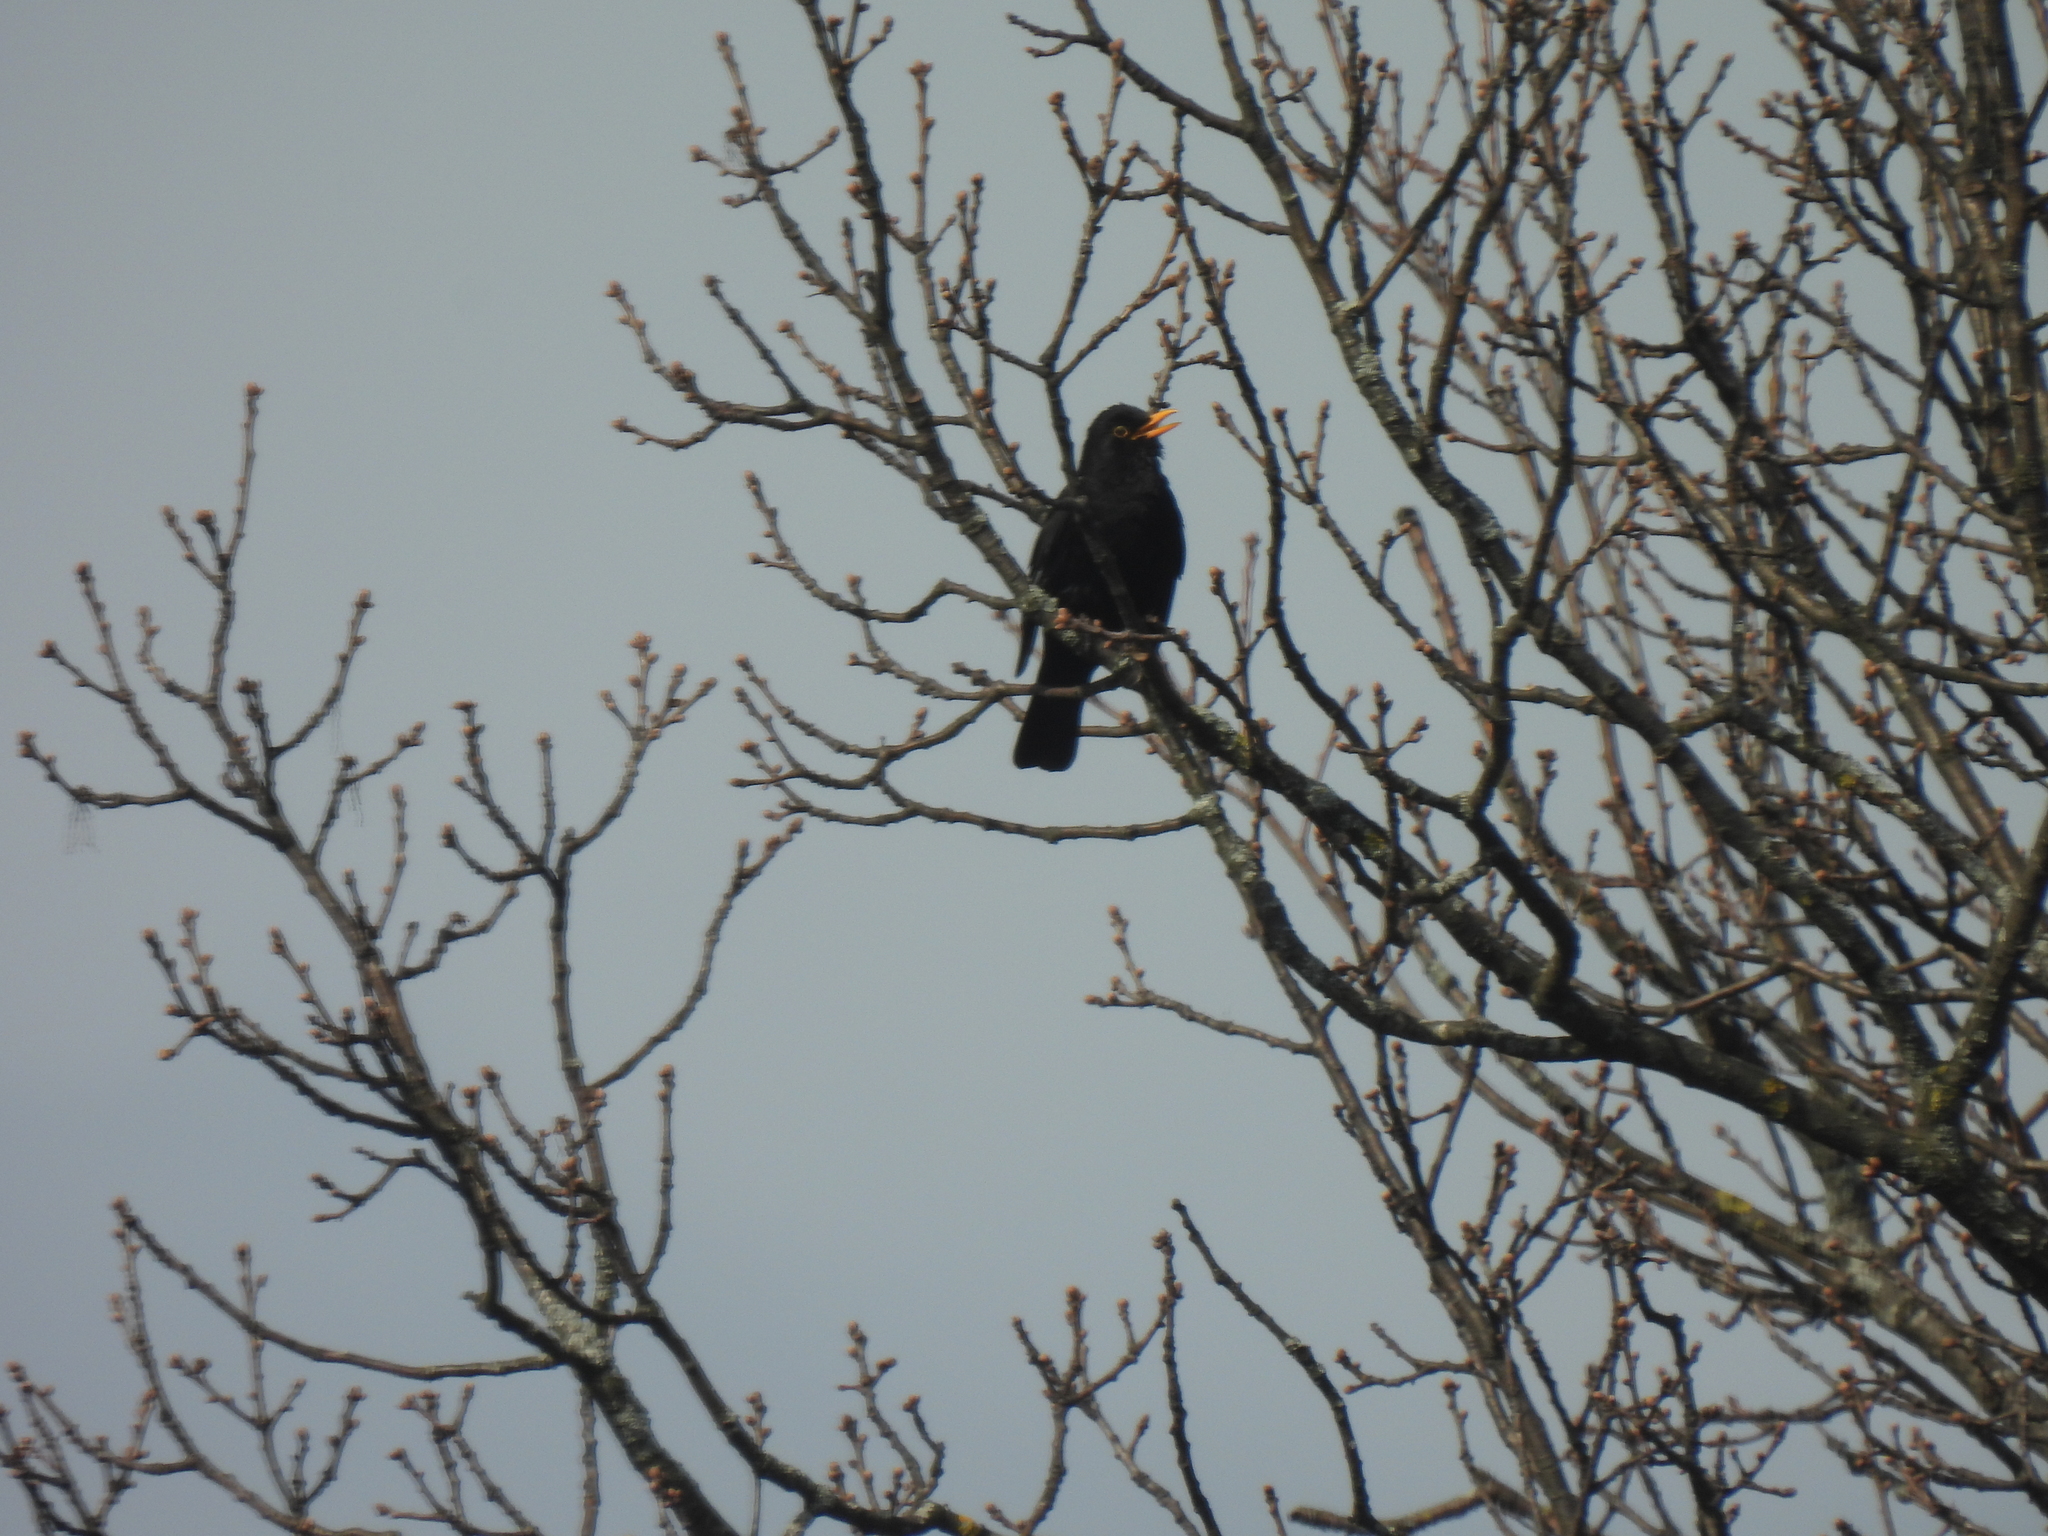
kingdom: Animalia
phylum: Chordata
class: Aves
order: Passeriformes
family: Turdidae
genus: Turdus
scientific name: Turdus merula
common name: Common blackbird
